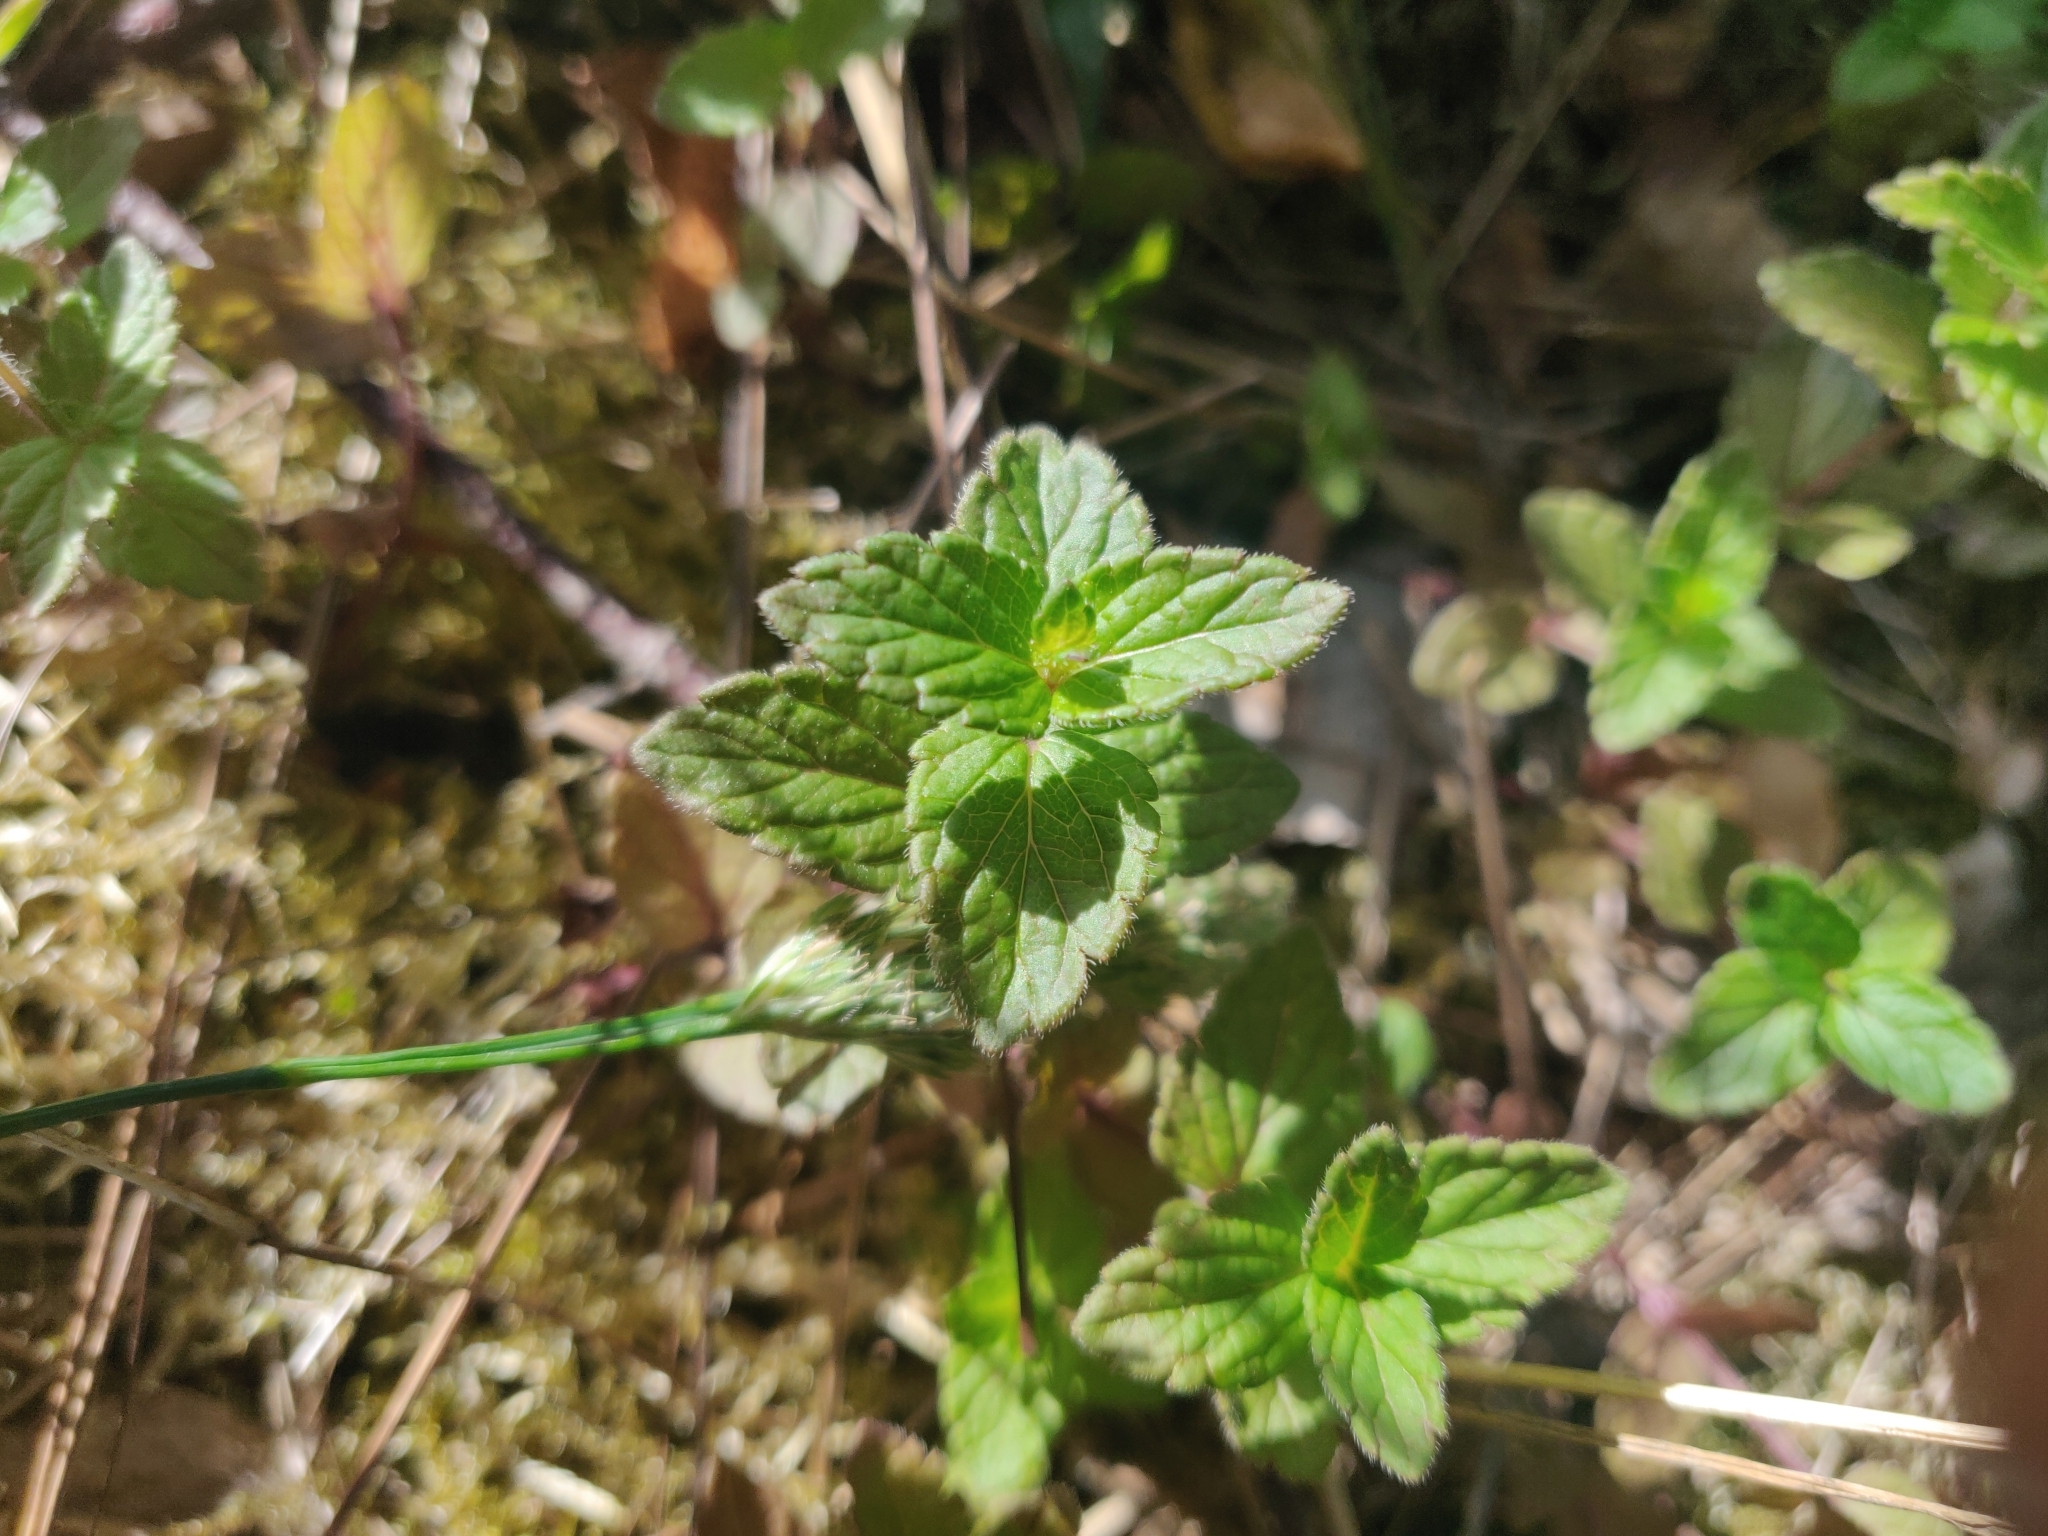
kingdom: Plantae
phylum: Tracheophyta
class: Magnoliopsida
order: Lamiales
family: Plantaginaceae
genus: Veronica
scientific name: Veronica chamaedrys
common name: Germander speedwell
